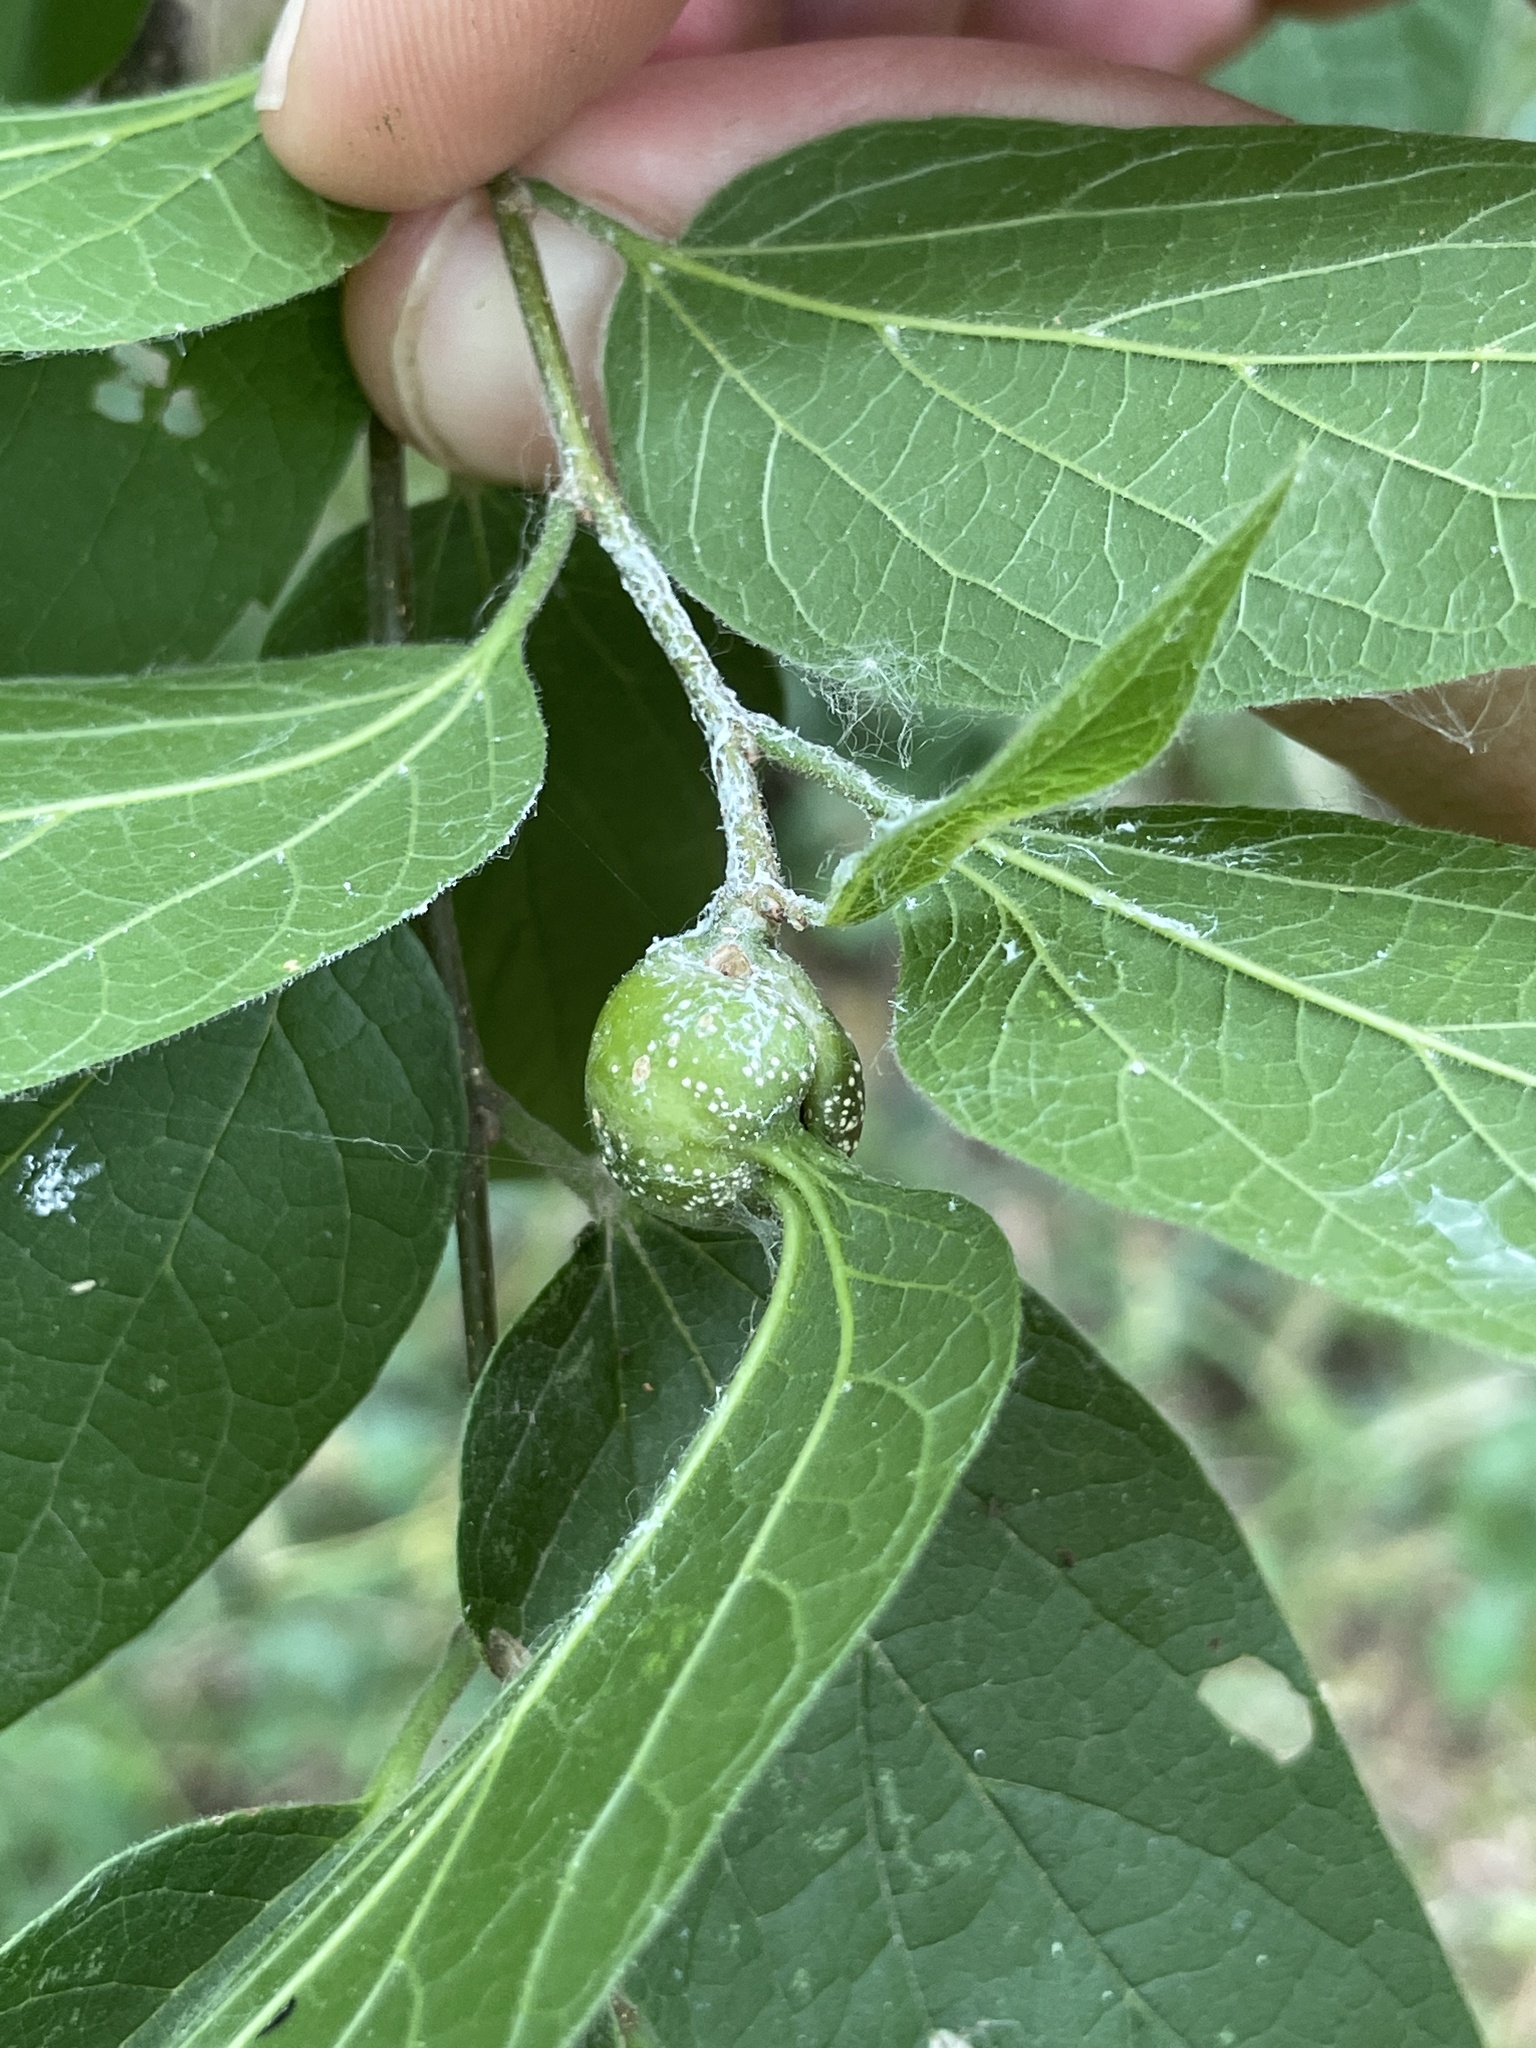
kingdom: Animalia
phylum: Arthropoda
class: Insecta
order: Hemiptera
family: Aphalaridae
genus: Pachypsylla
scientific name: Pachypsylla venusta
